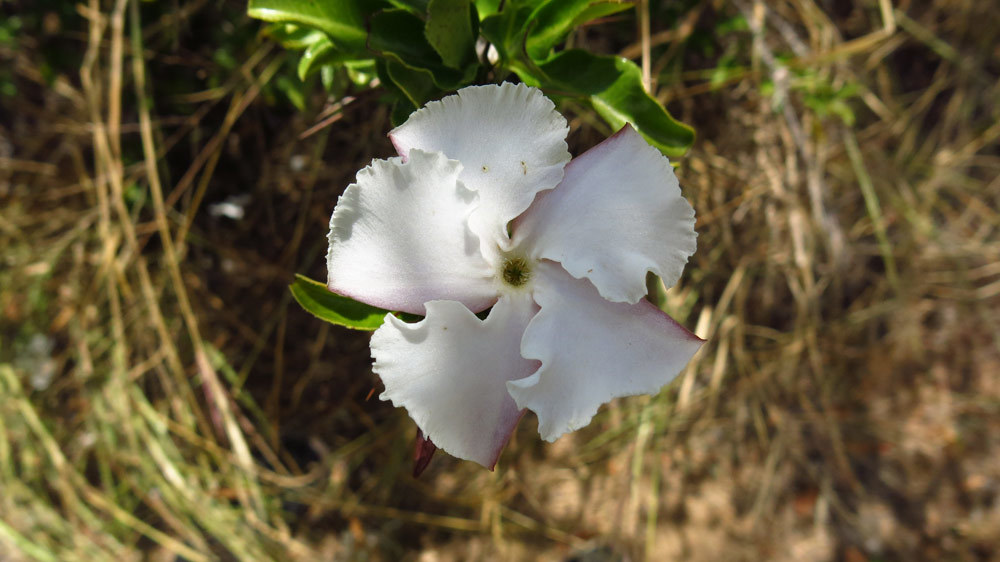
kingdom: Plantae
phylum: Tracheophyta
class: Magnoliopsida
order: Gentianales
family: Apocynaceae
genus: Pachypodium
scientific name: Pachypodium saundersii
